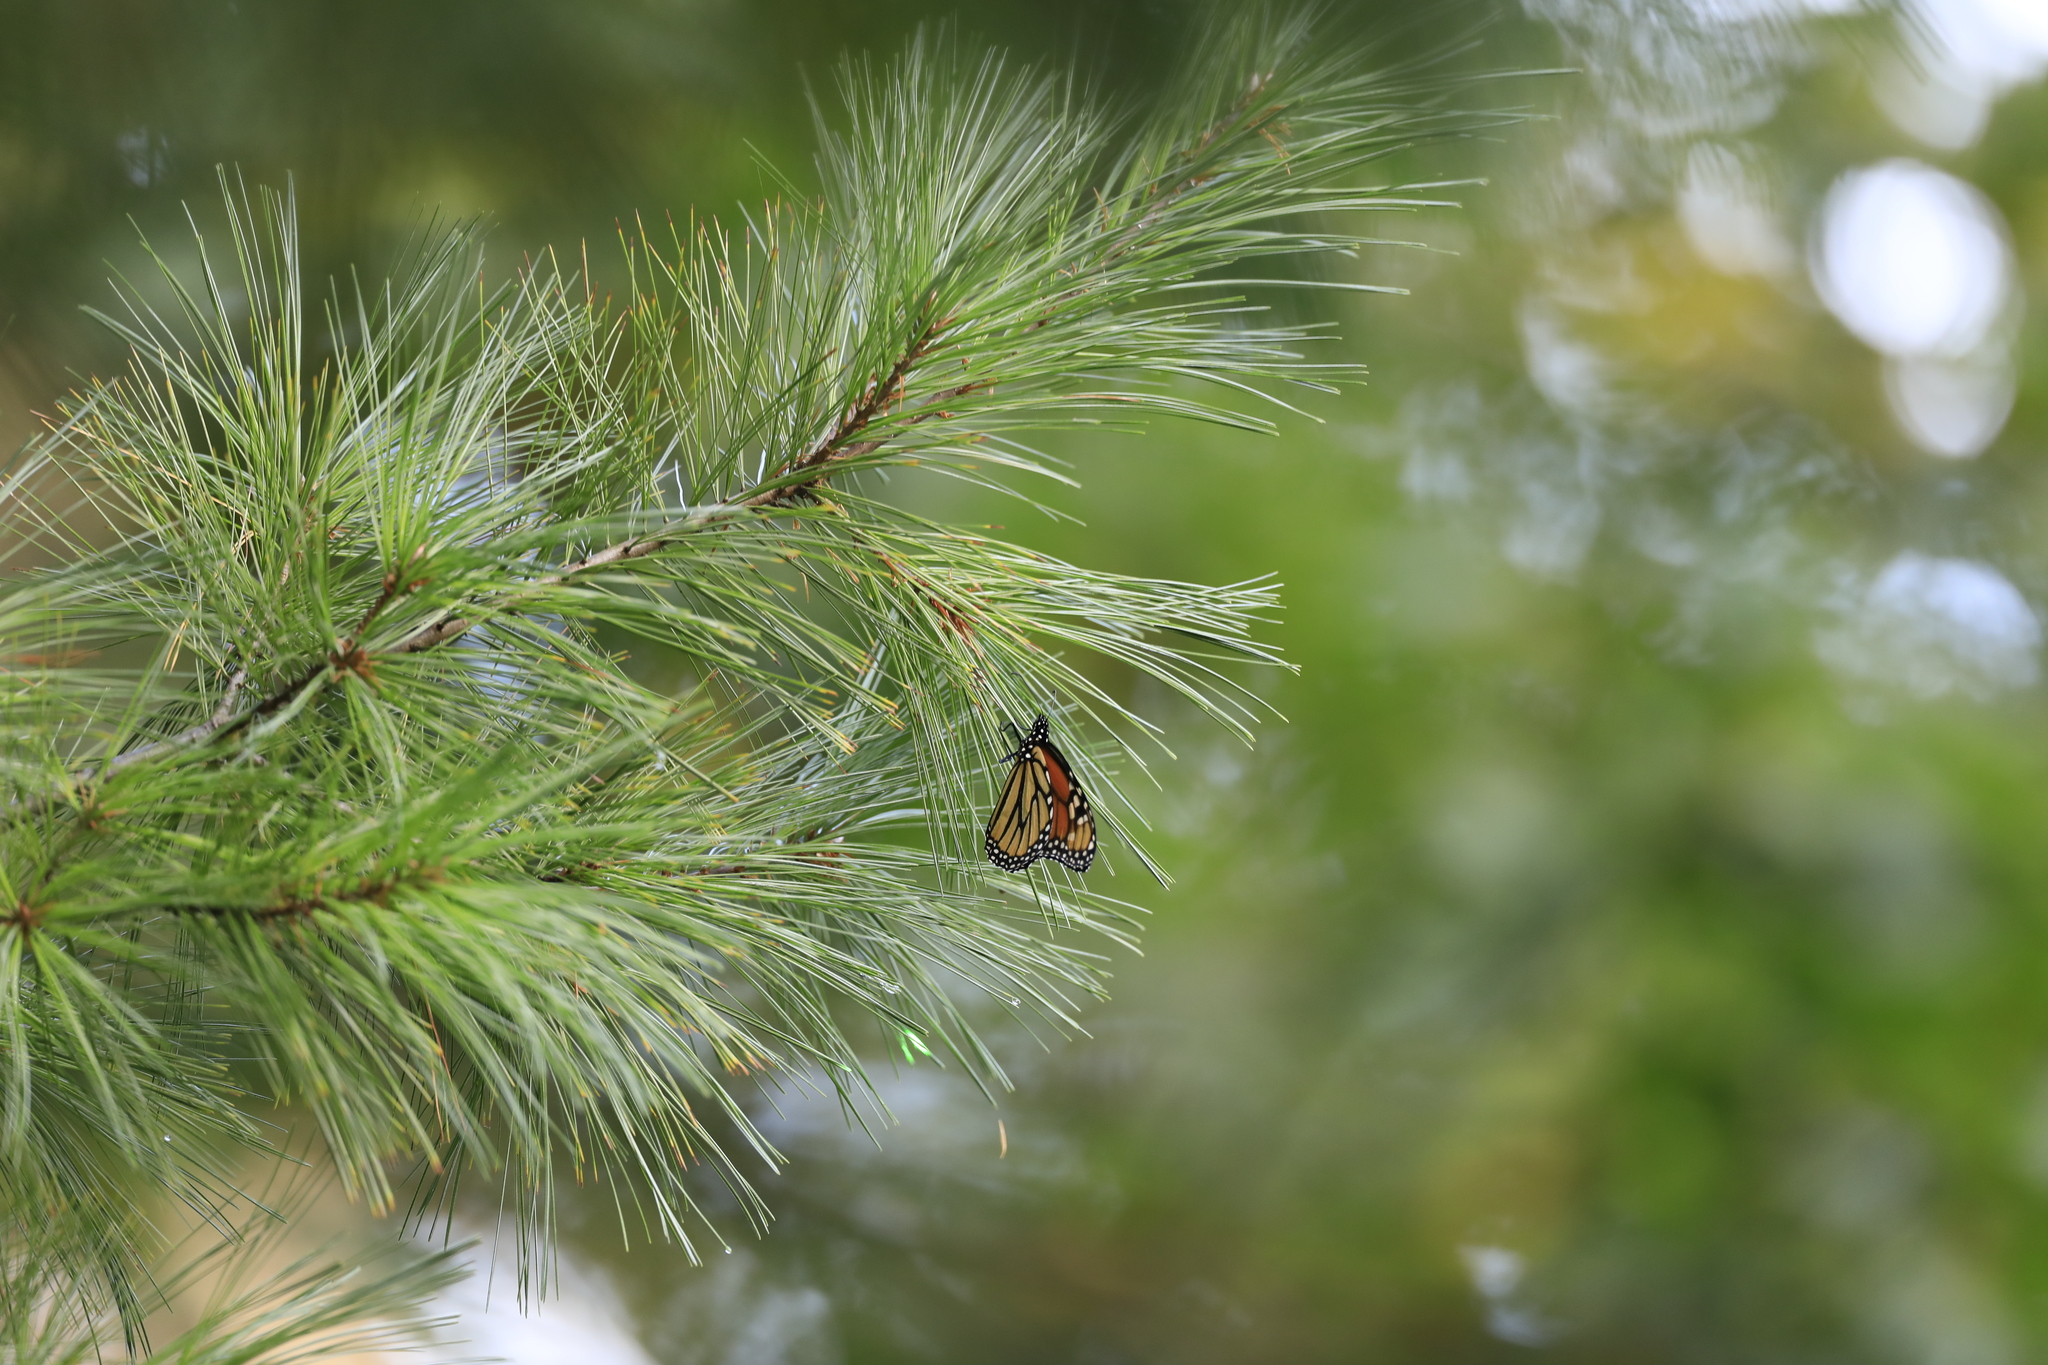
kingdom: Animalia
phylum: Arthropoda
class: Insecta
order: Lepidoptera
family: Nymphalidae
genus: Danaus
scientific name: Danaus plexippus
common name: Monarch
